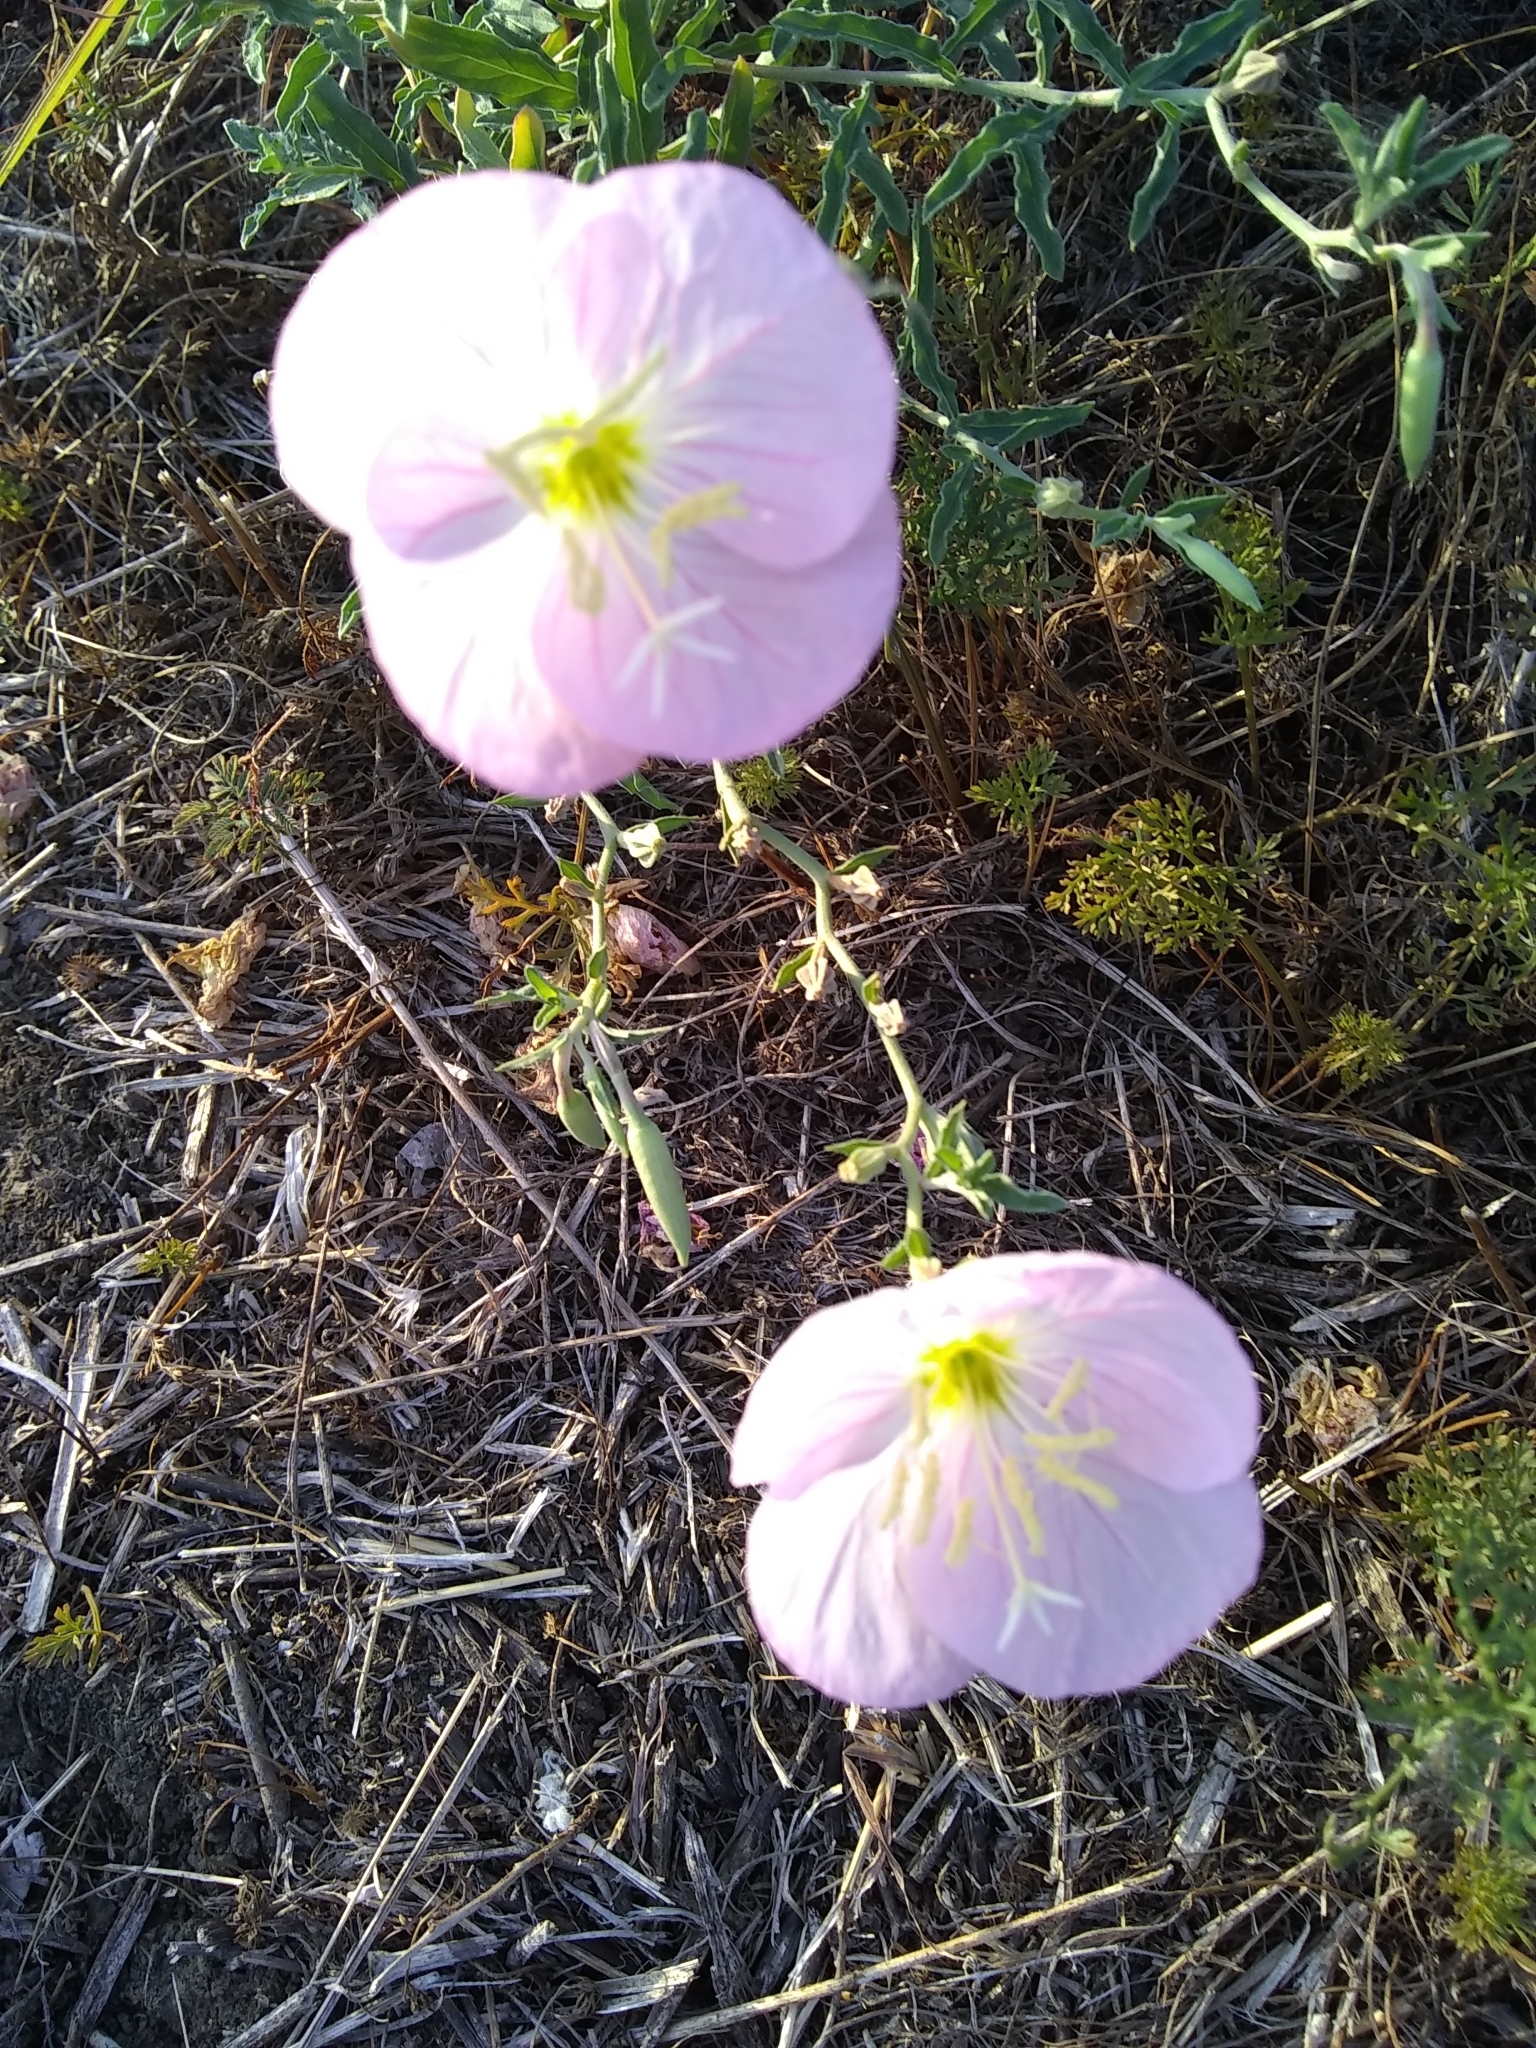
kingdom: Plantae
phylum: Tracheophyta
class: Magnoliopsida
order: Myrtales
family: Onagraceae
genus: Oenothera
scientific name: Oenothera speciosa
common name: White evening-primrose
